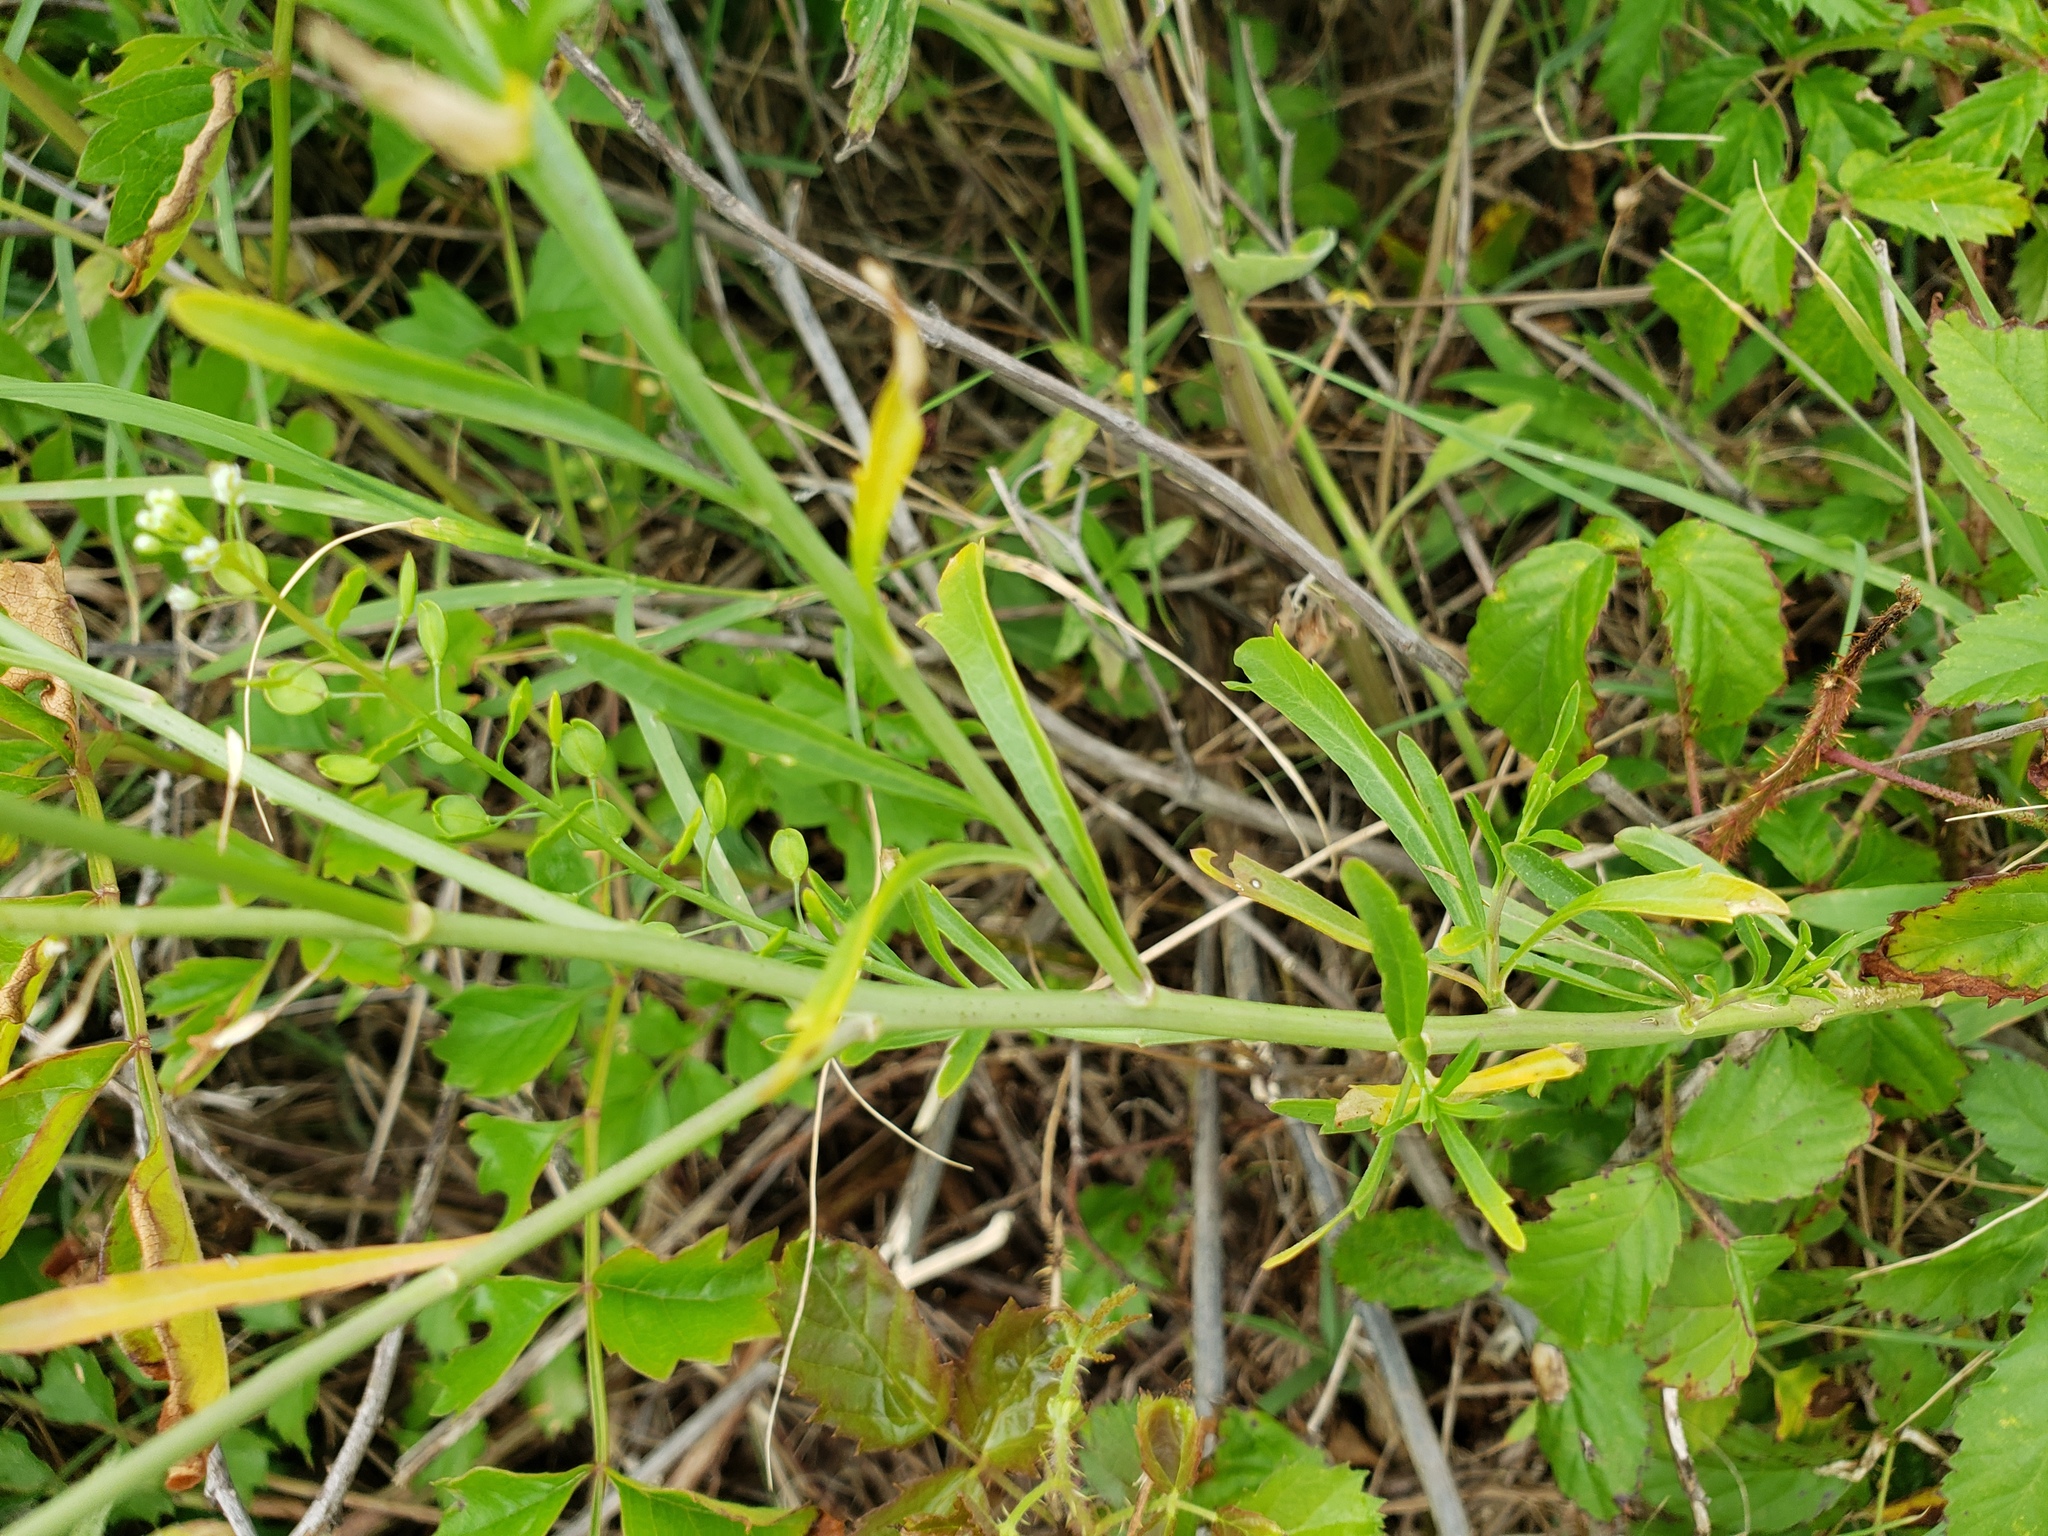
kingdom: Plantae
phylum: Tracheophyta
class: Magnoliopsida
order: Brassicales
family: Brassicaceae
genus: Lepidium
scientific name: Lepidium virginicum
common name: Least pepperwort
